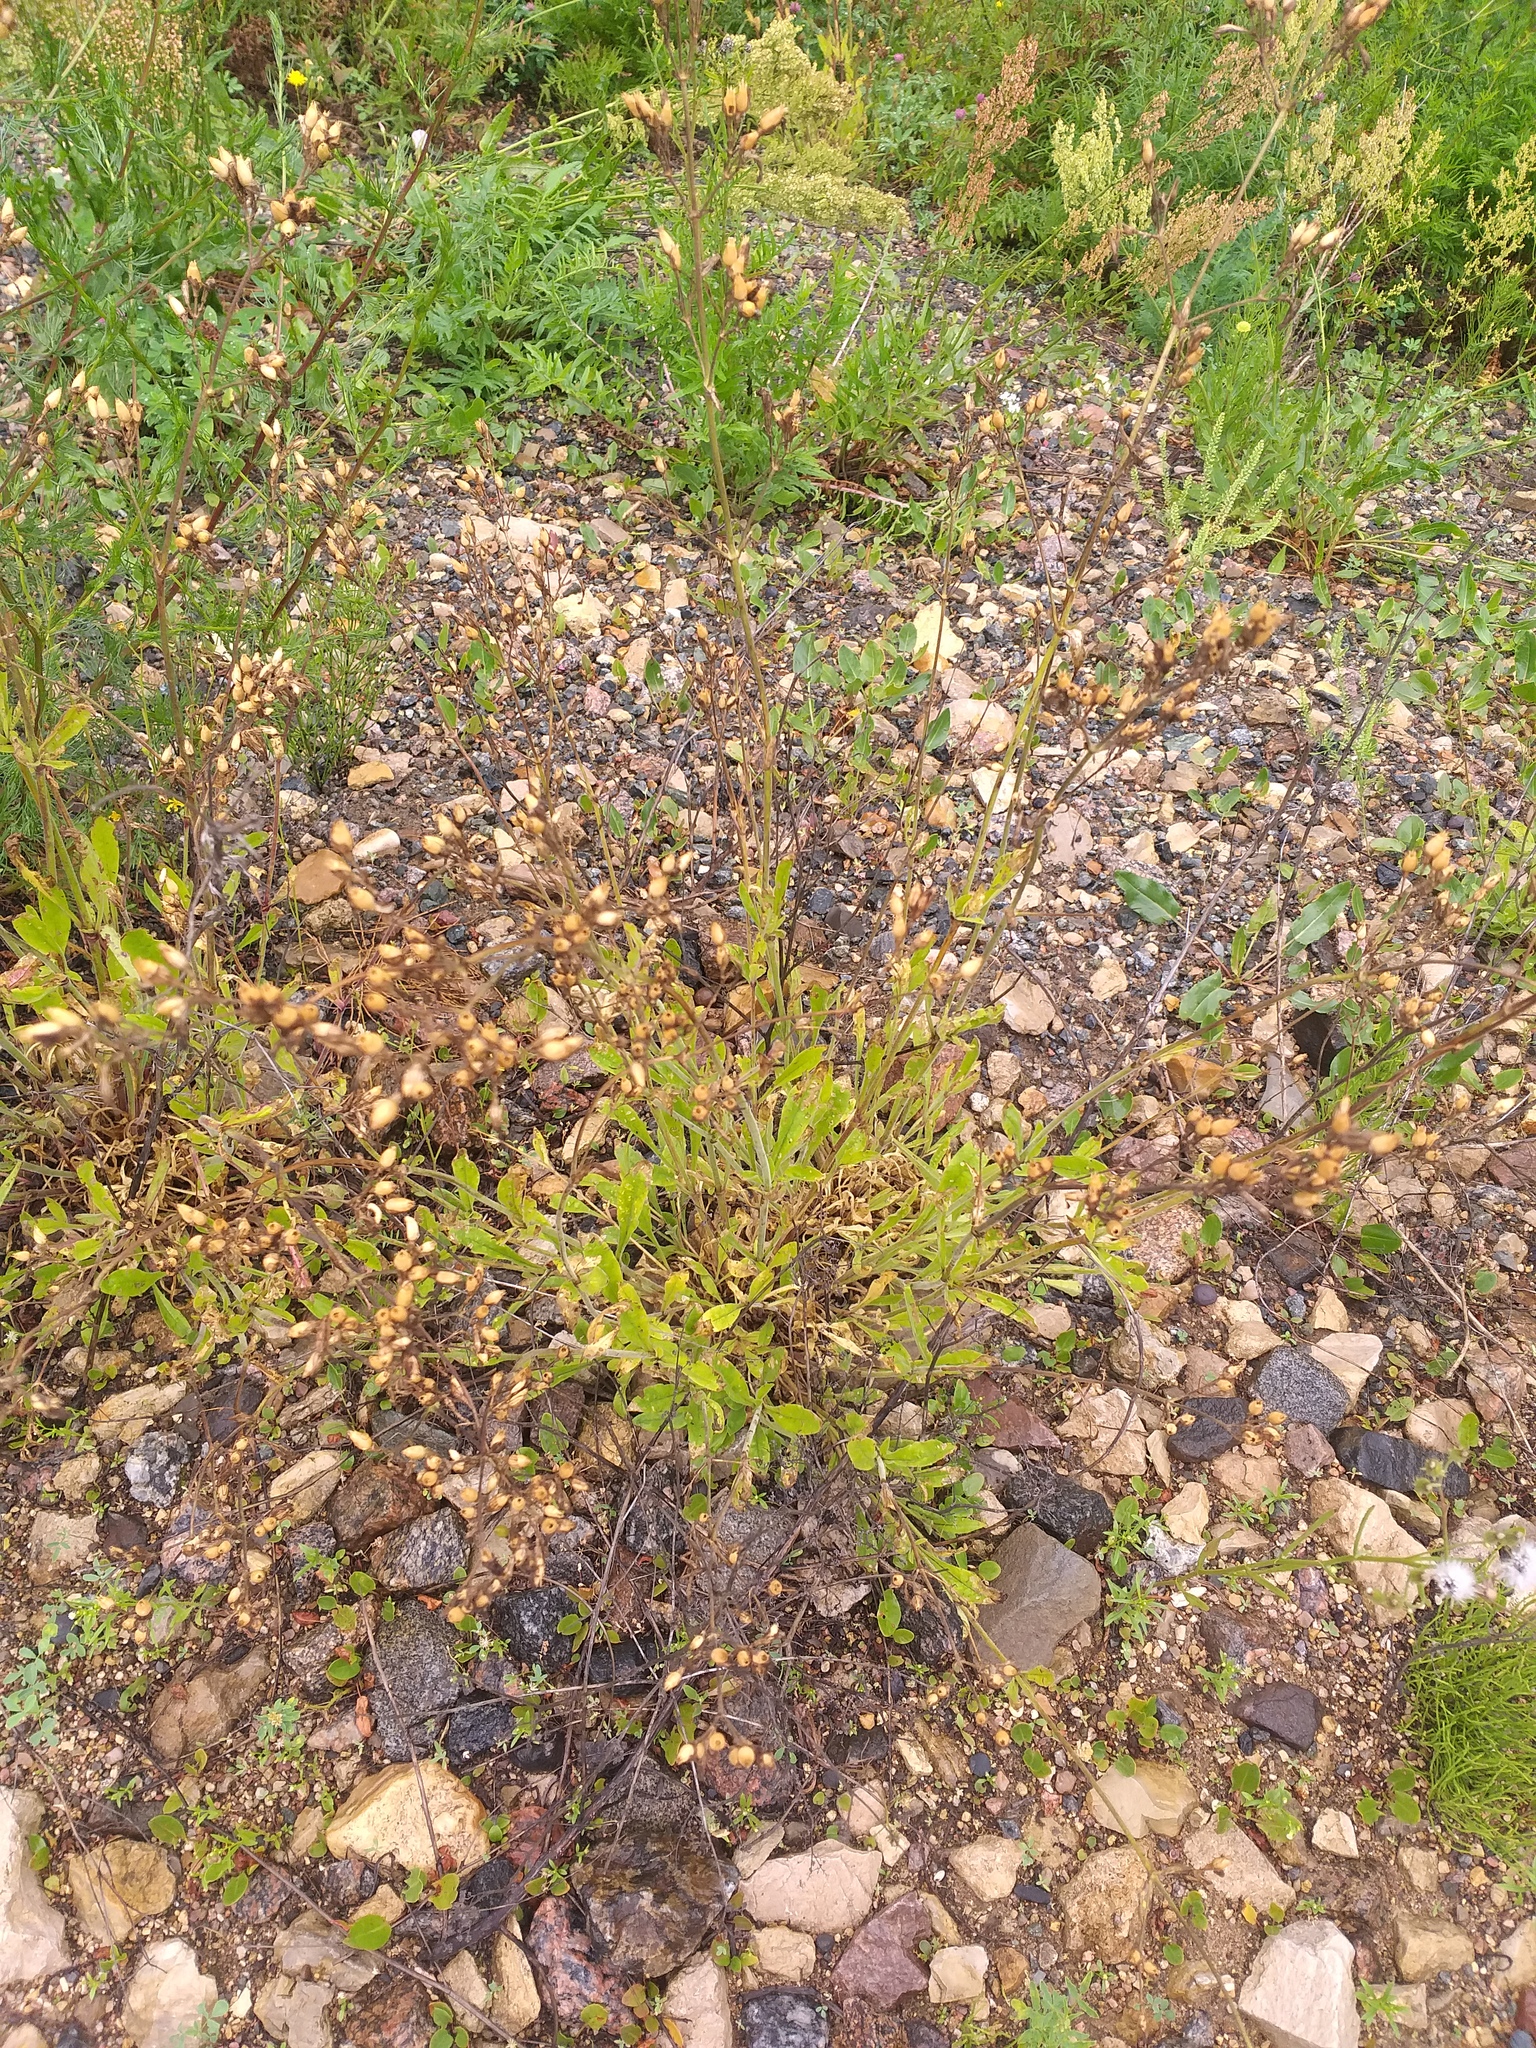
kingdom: Plantae
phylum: Tracheophyta
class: Magnoliopsida
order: Caryophyllales
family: Caryophyllaceae
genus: Silene
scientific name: Silene nutans
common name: Nottingham catchfly
